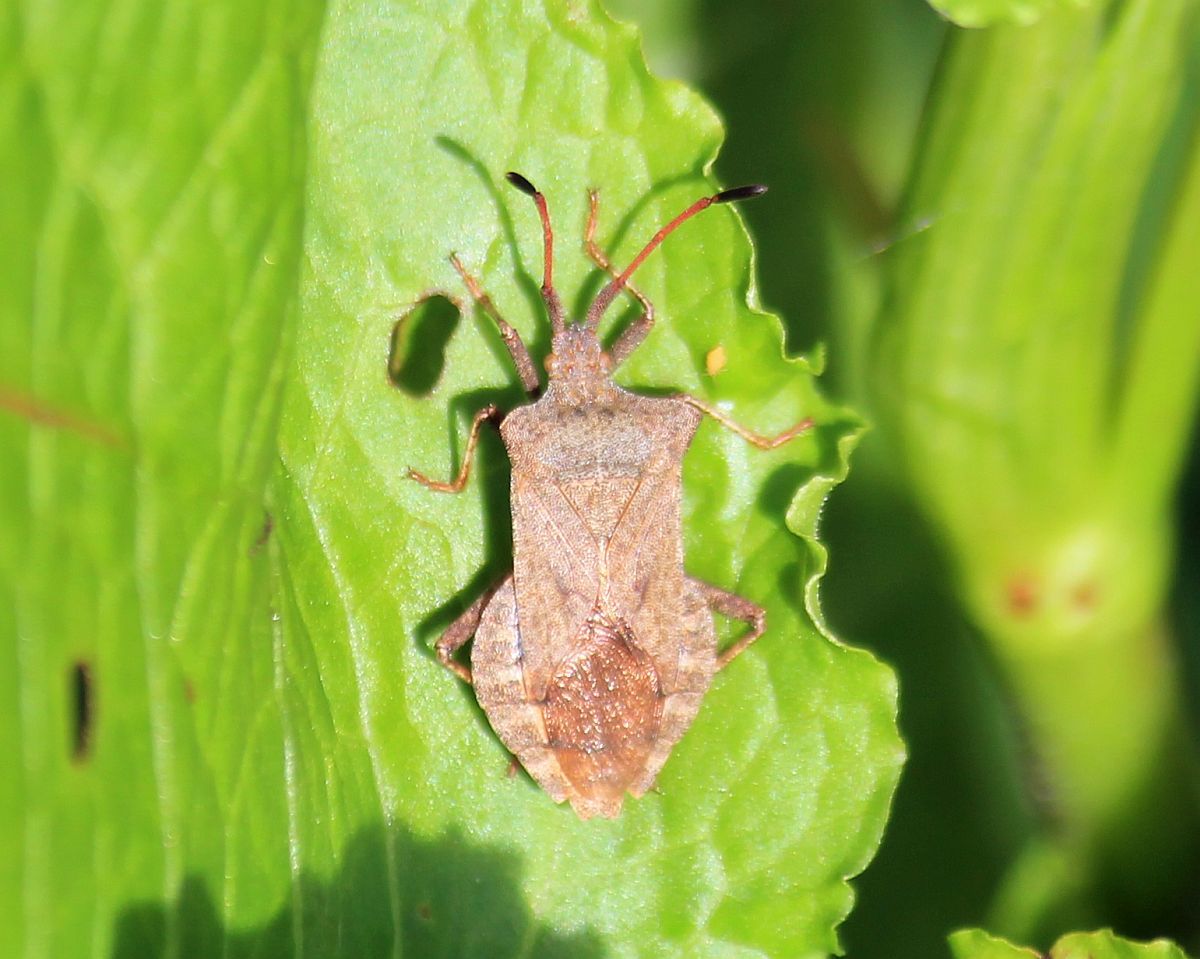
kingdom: Animalia
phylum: Arthropoda
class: Insecta
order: Hemiptera
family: Coreidae
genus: Coreus
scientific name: Coreus marginatus
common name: Dock bug
